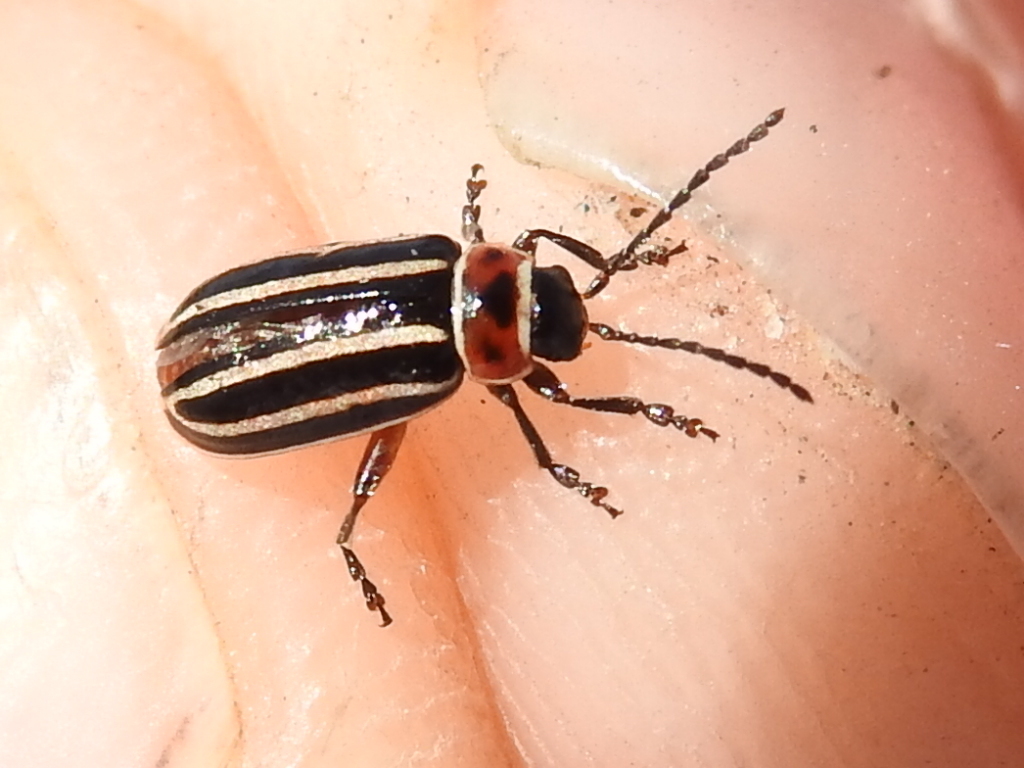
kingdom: Animalia
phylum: Arthropoda
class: Insecta
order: Coleoptera
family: Chrysomelidae
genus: Disonycha
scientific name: Disonycha procera
